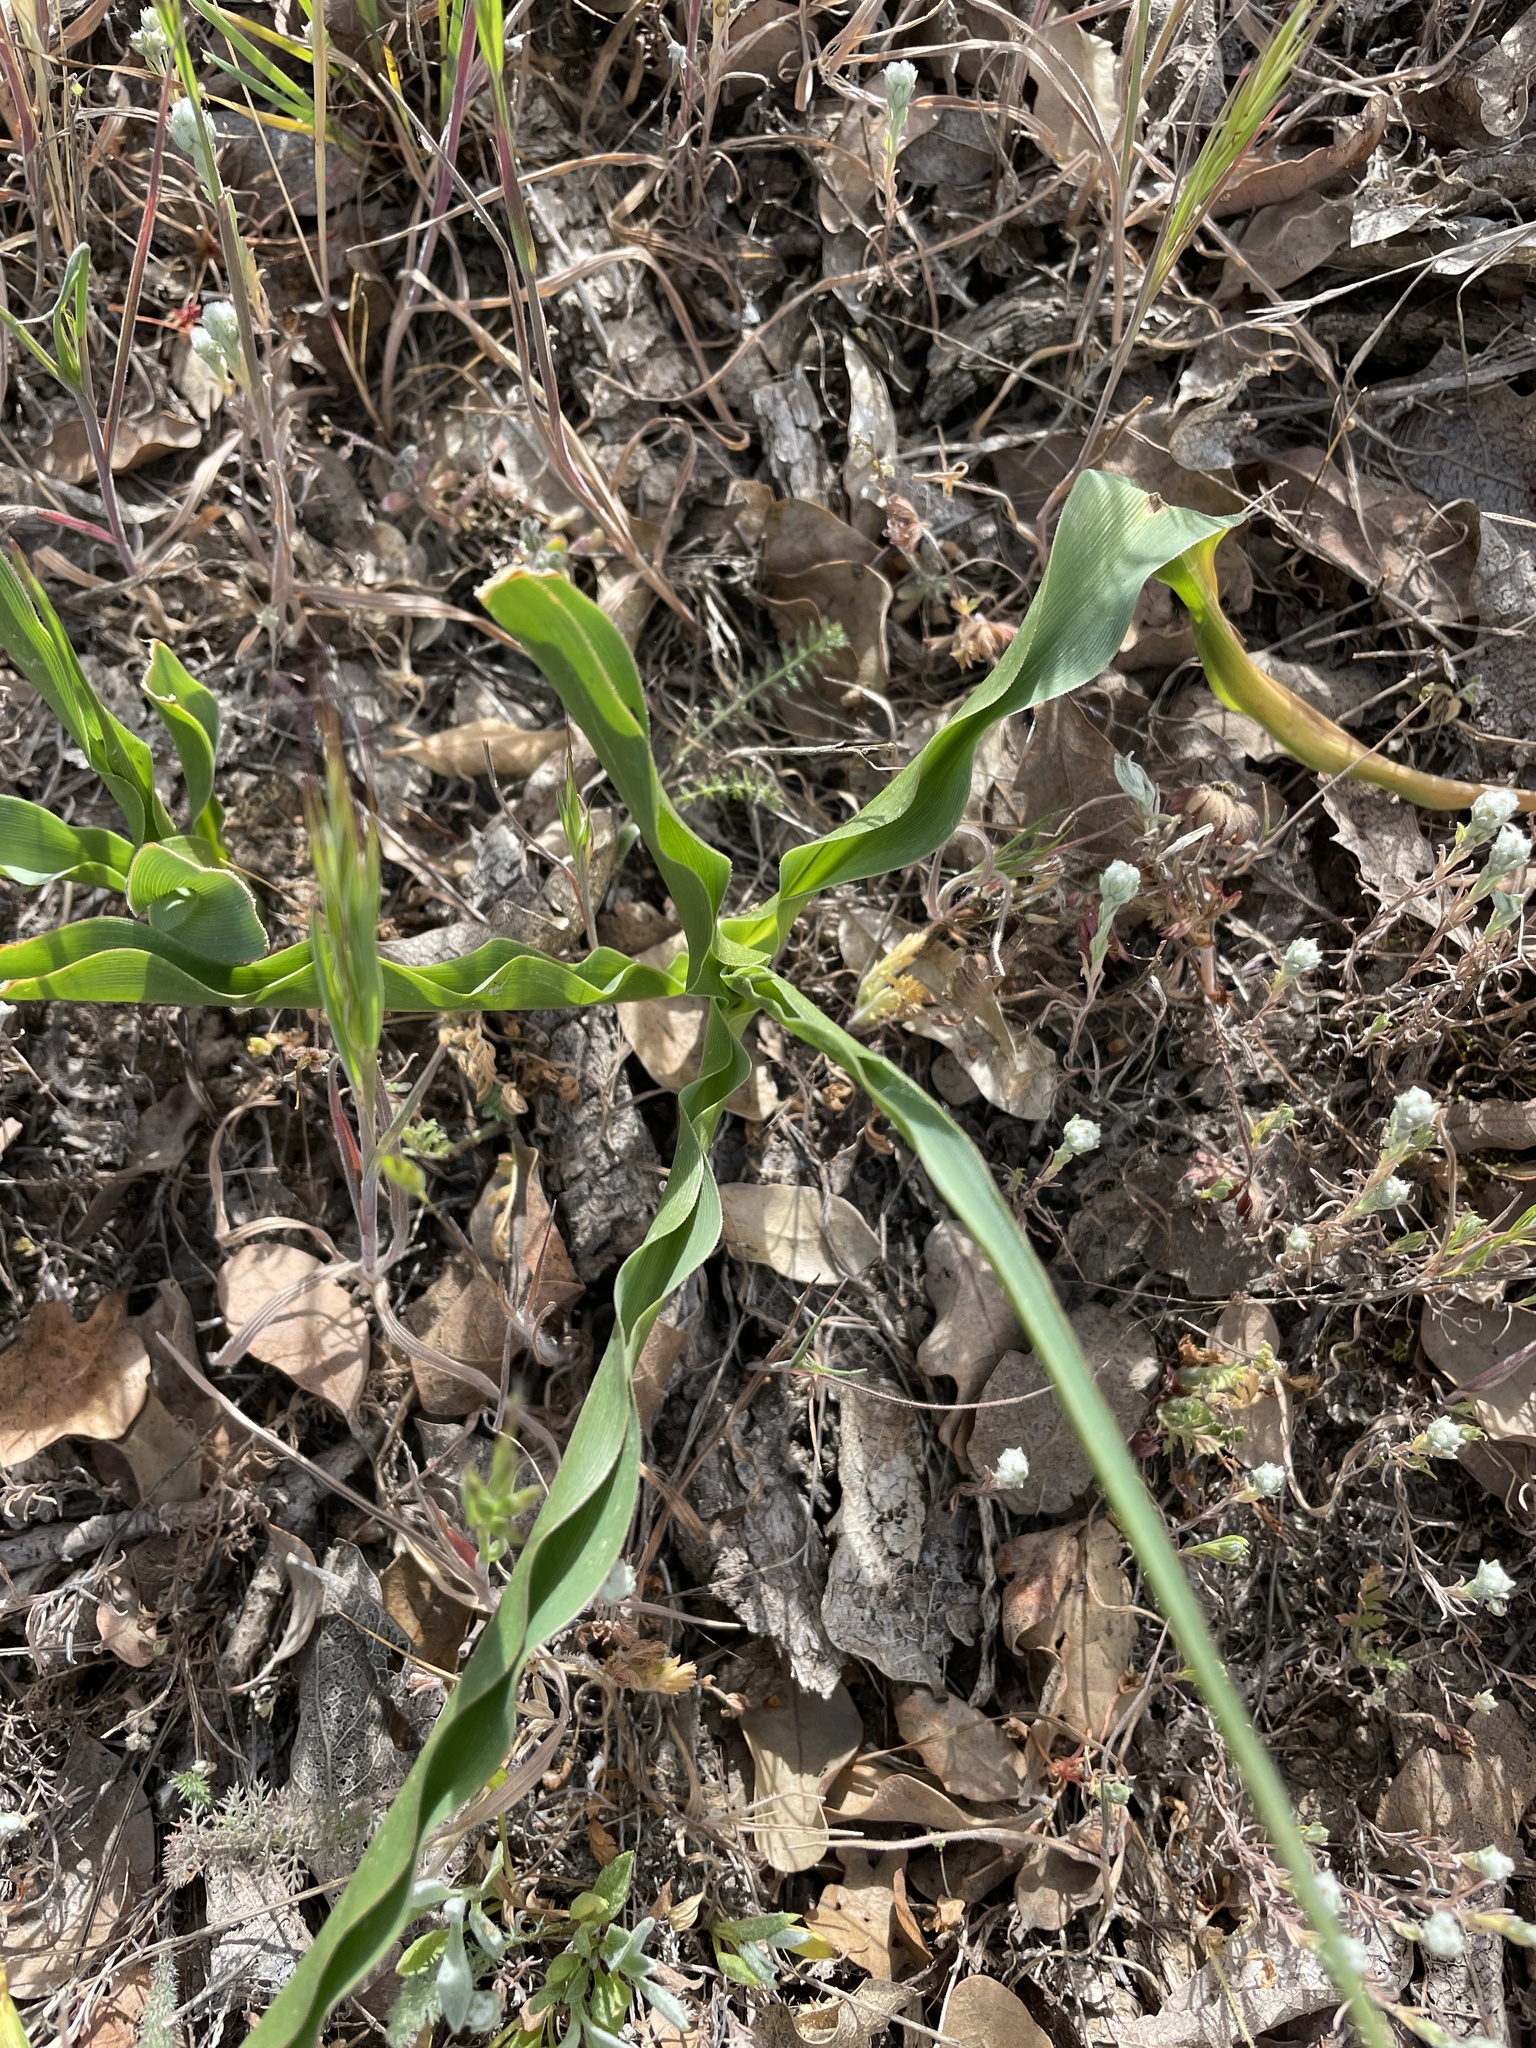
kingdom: Plantae
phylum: Tracheophyta
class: Liliopsida
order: Asparagales
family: Asparagaceae
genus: Chlorogalum
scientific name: Chlorogalum pomeridianum
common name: Amole
